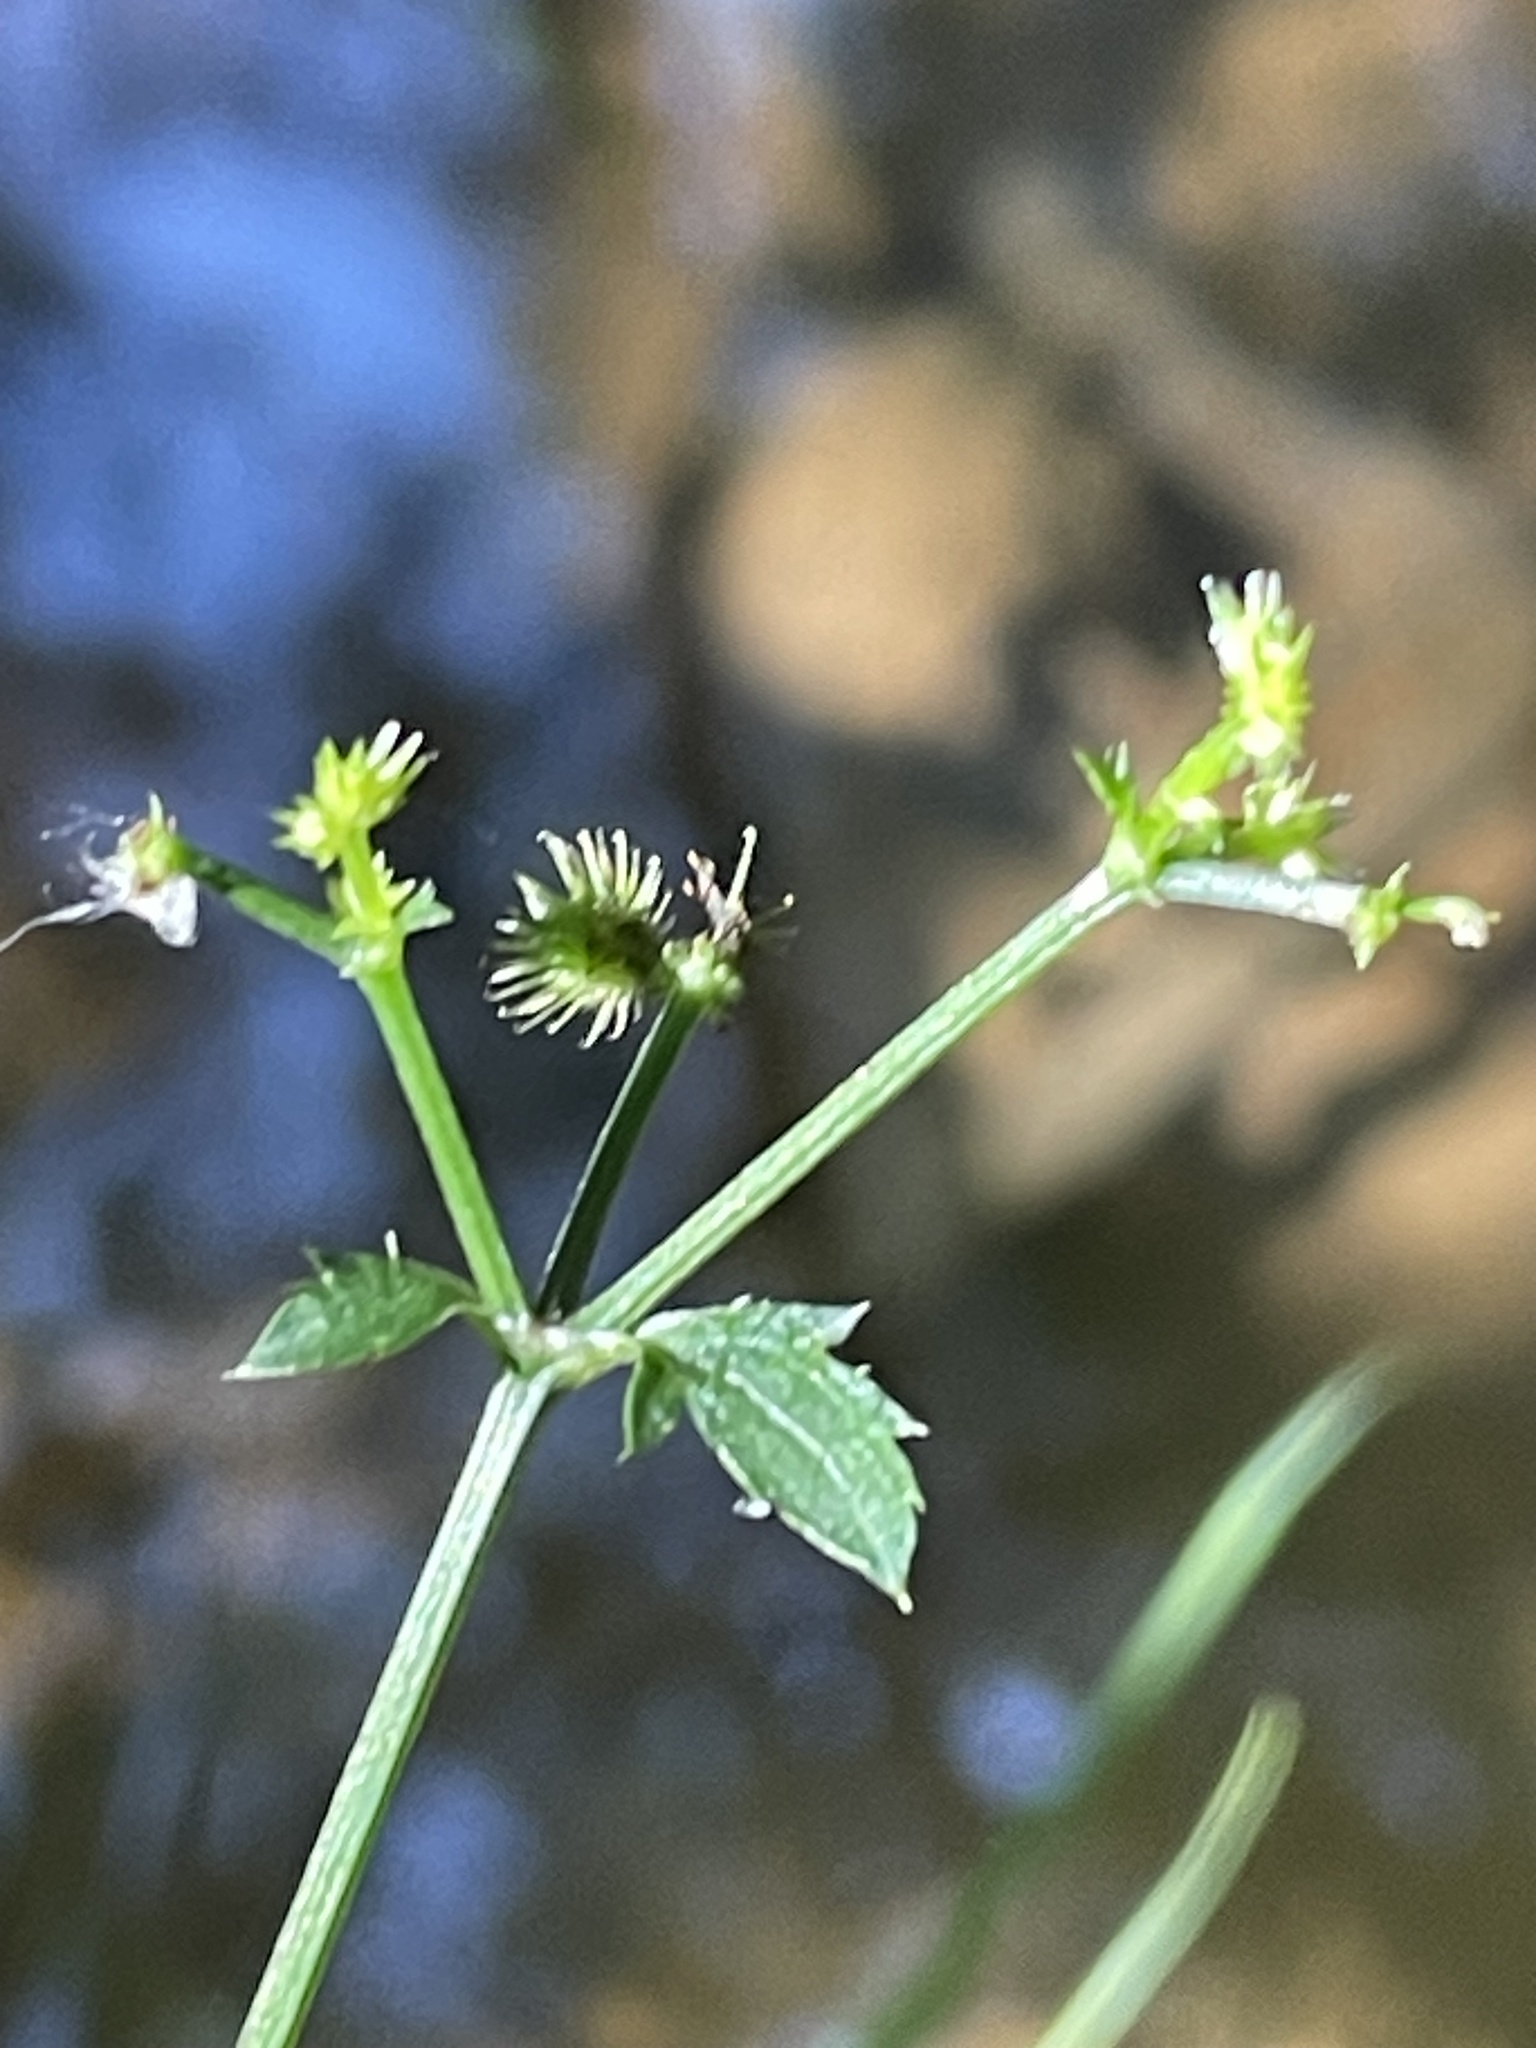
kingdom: Plantae
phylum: Tracheophyta
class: Magnoliopsida
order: Apiales
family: Apiaceae
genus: Sanicula
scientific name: Sanicula marilandica
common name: Black snakeroot
